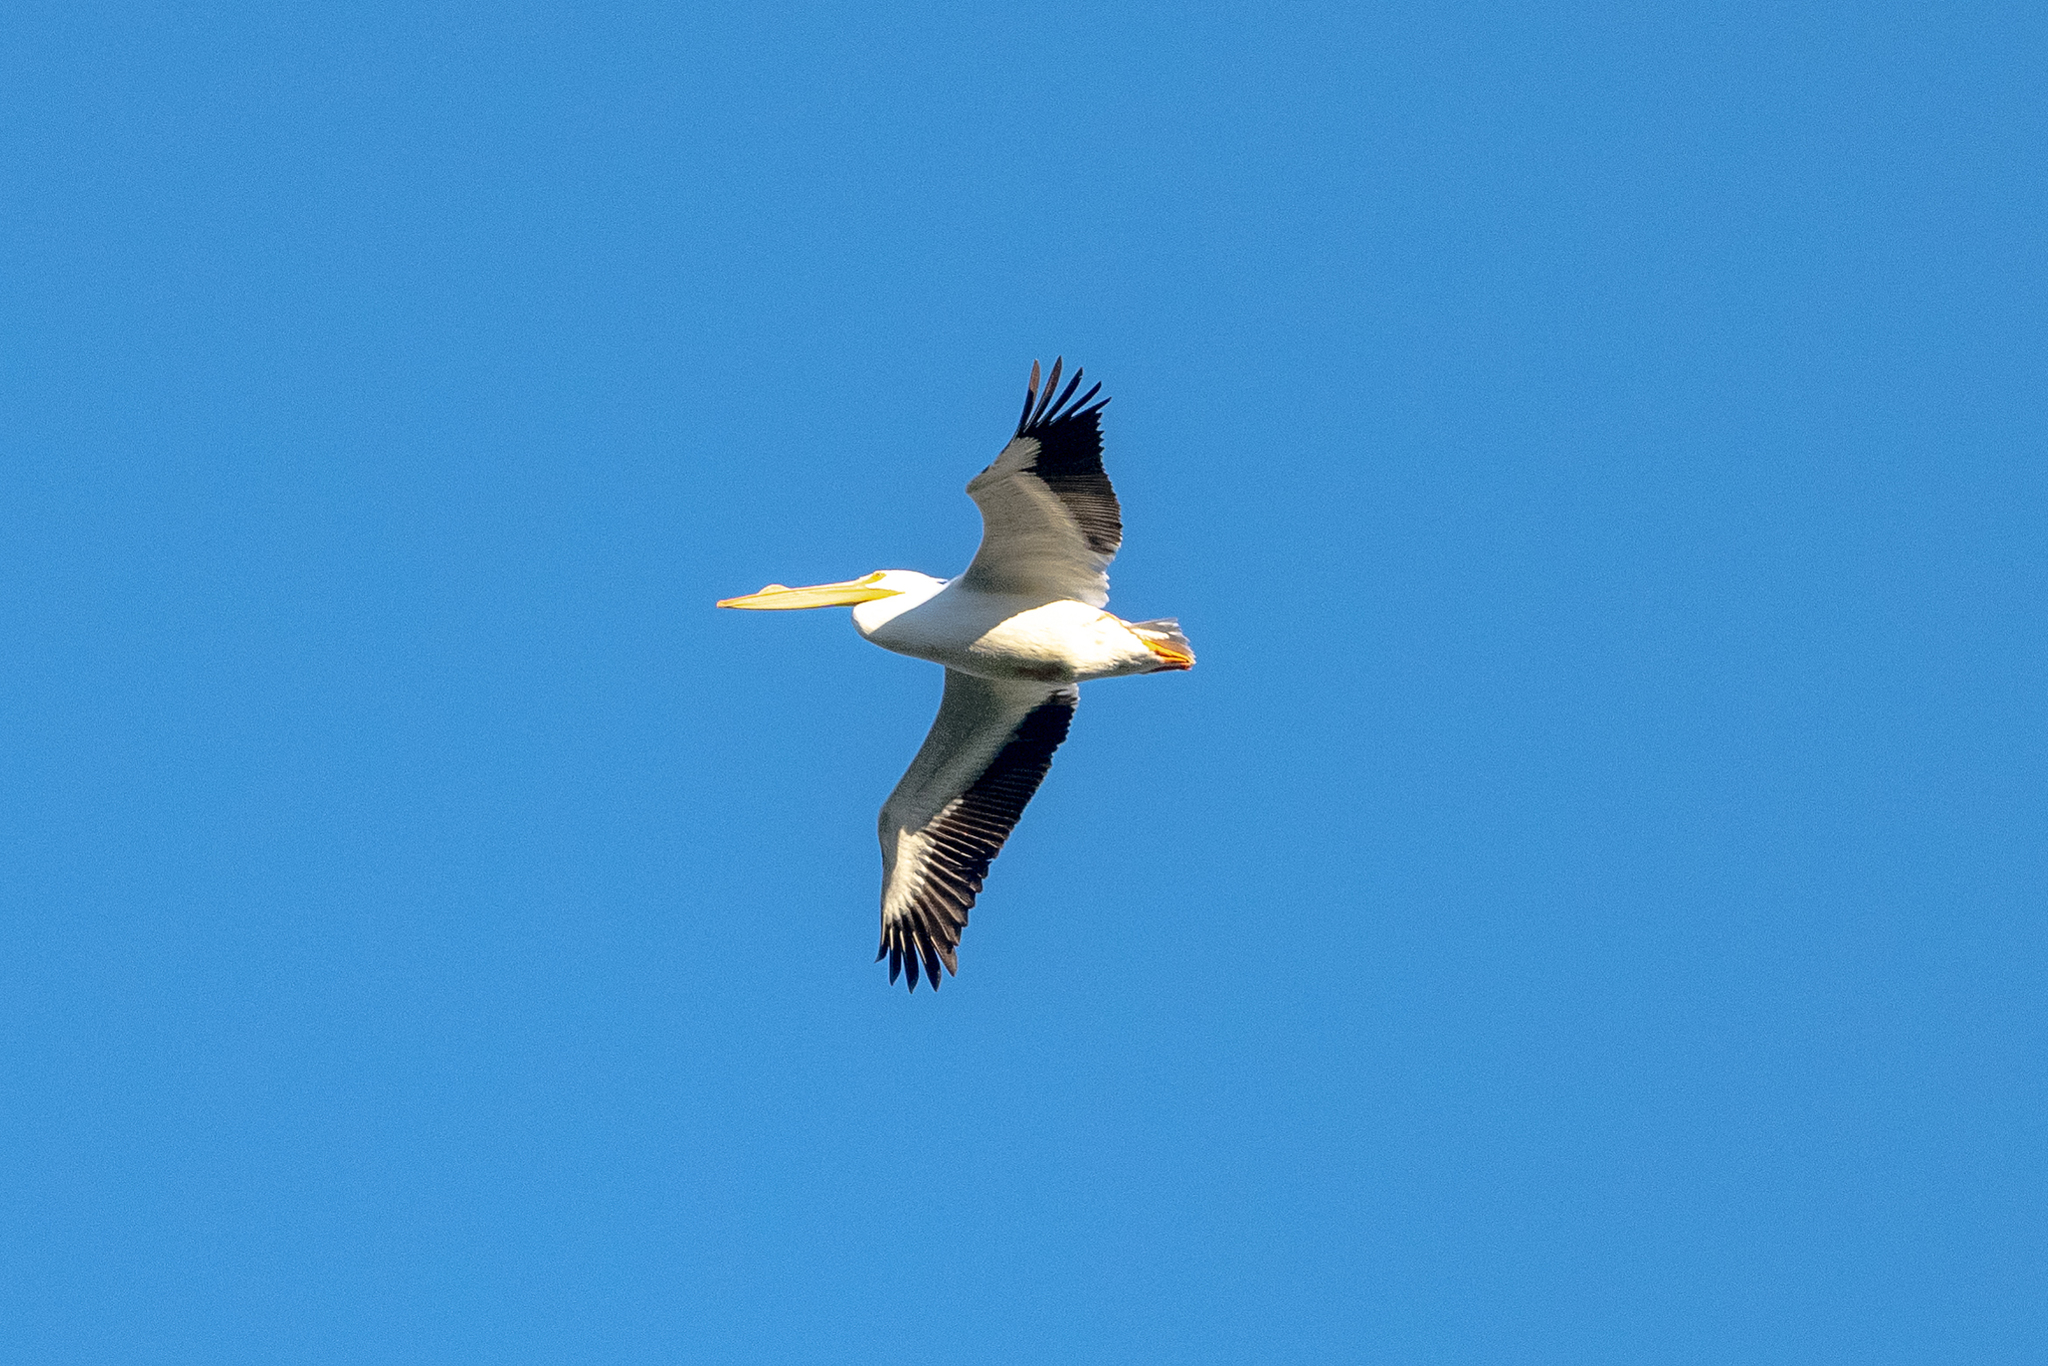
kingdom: Animalia
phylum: Chordata
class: Aves
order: Pelecaniformes
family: Pelecanidae
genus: Pelecanus
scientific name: Pelecanus erythrorhynchos
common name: American white pelican
